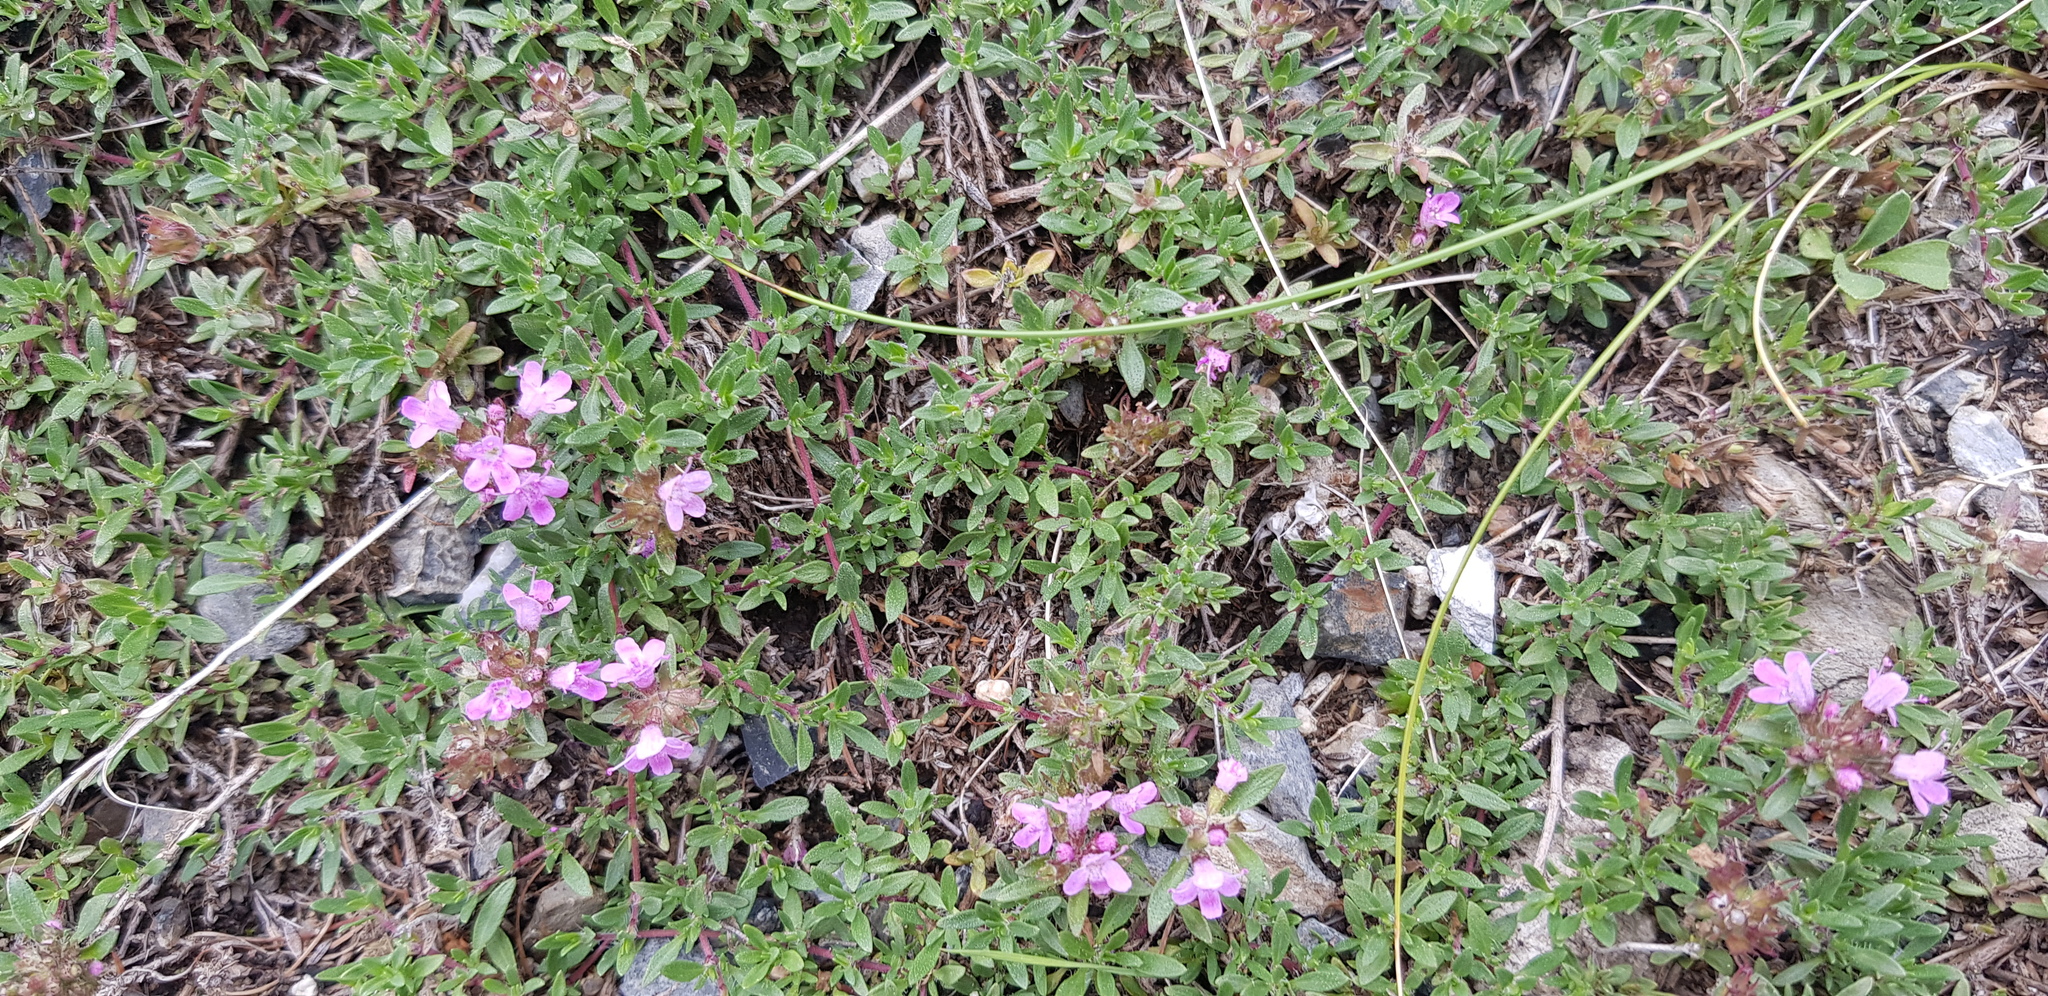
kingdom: Plantae
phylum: Tracheophyta
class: Magnoliopsida
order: Lamiales
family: Lamiaceae
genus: Thymus
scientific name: Thymus baicalensis
